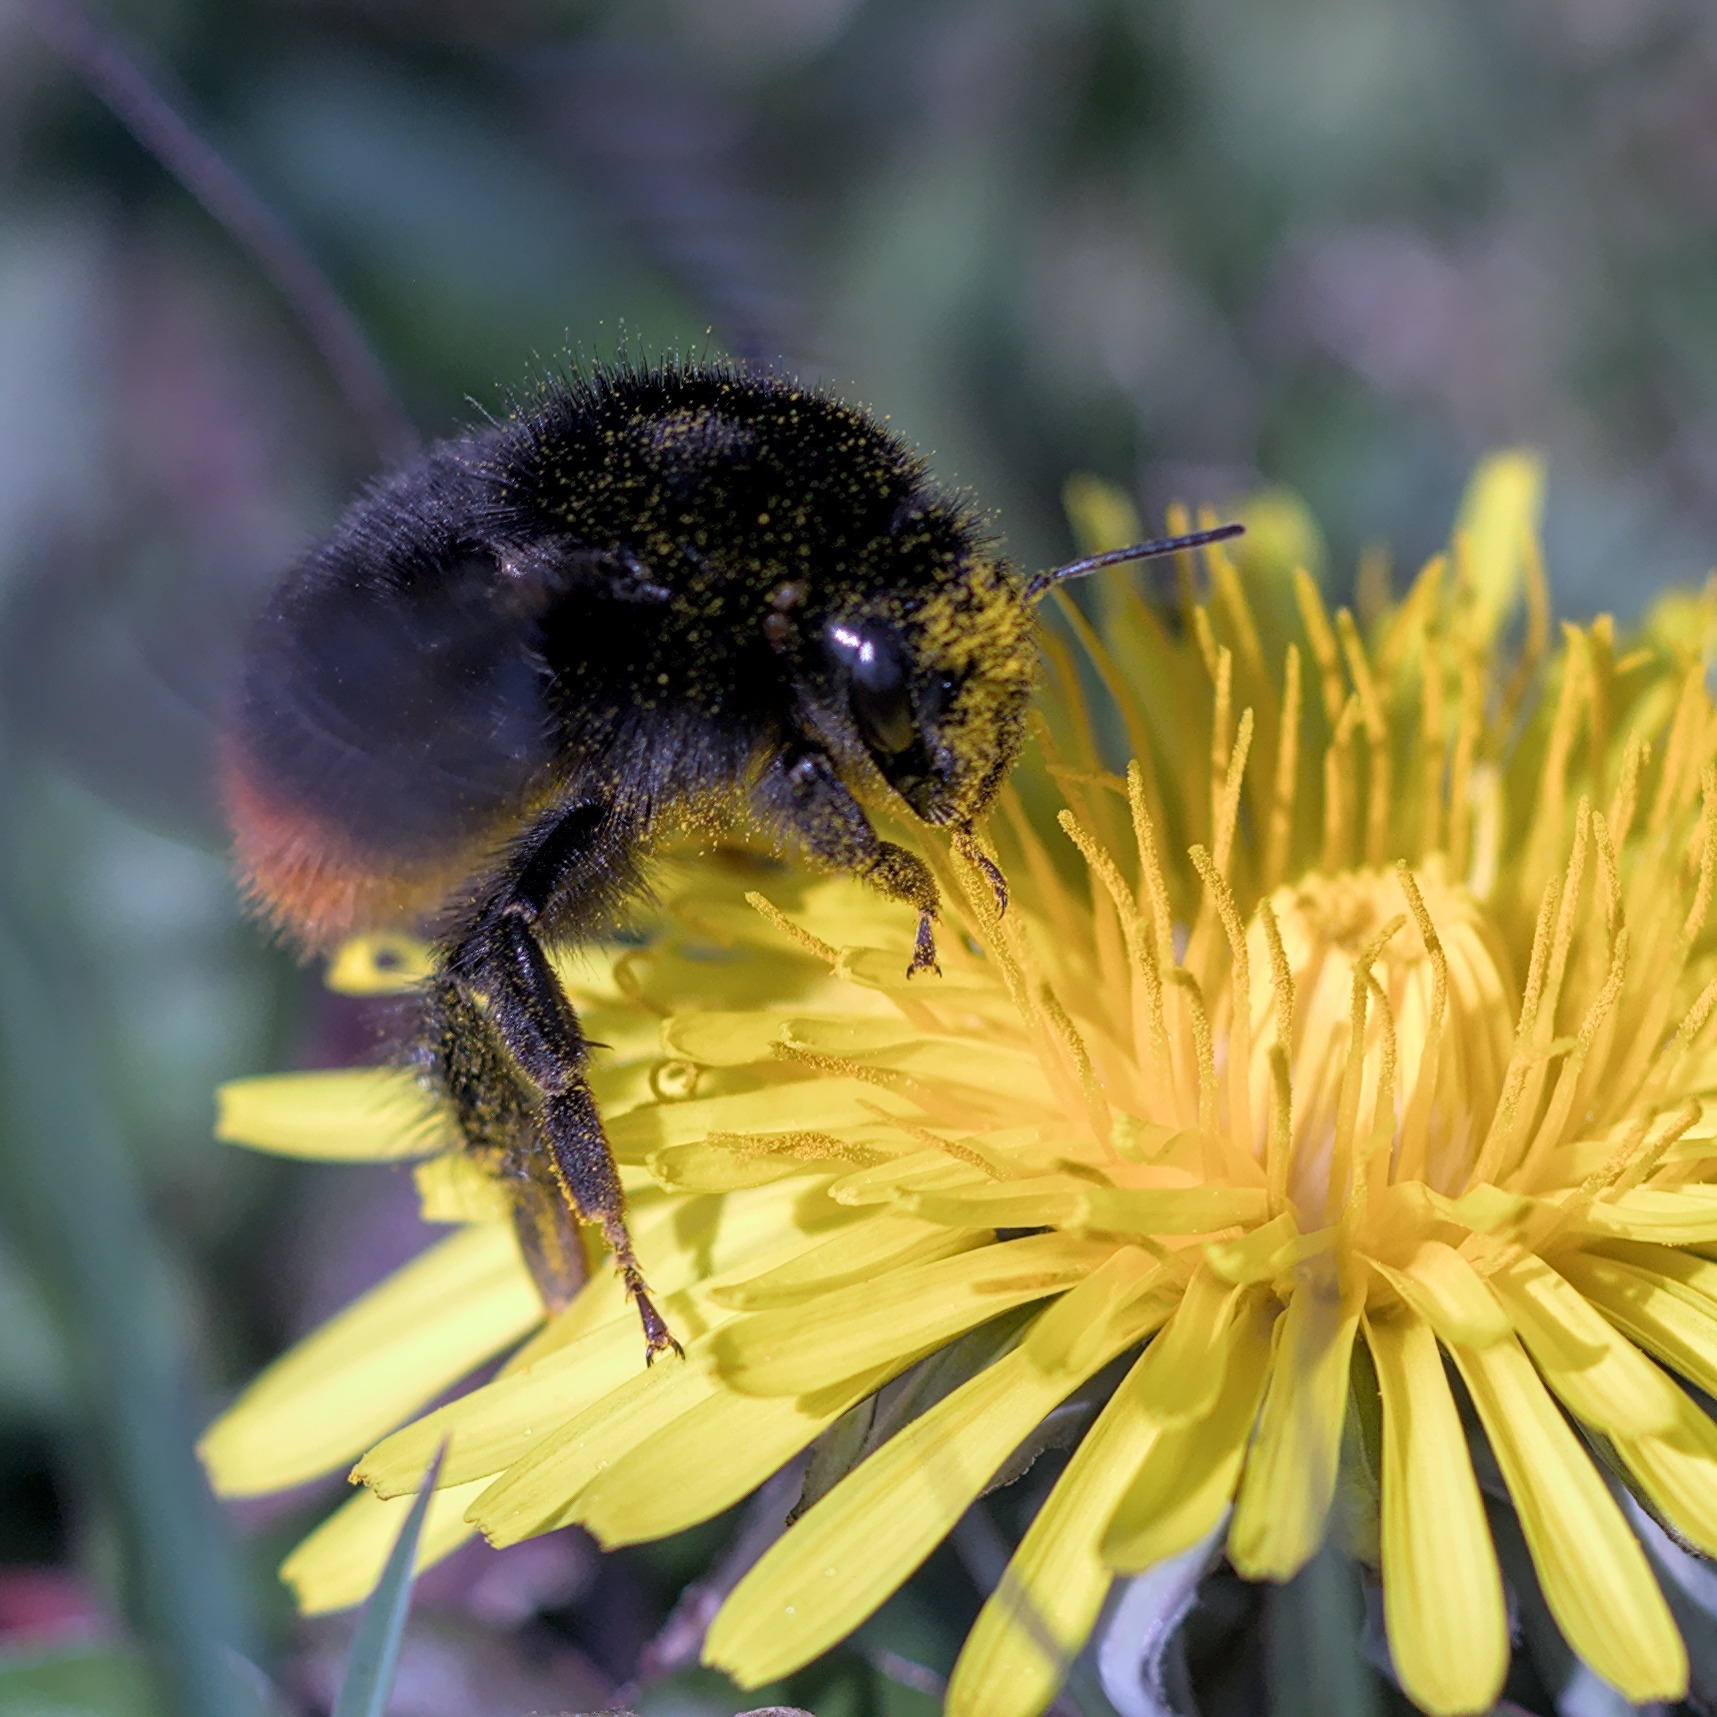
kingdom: Animalia
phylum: Arthropoda
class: Insecta
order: Hymenoptera
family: Apidae
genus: Bombus
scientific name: Bombus lapidarius
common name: Large red-tailed humble-bee
